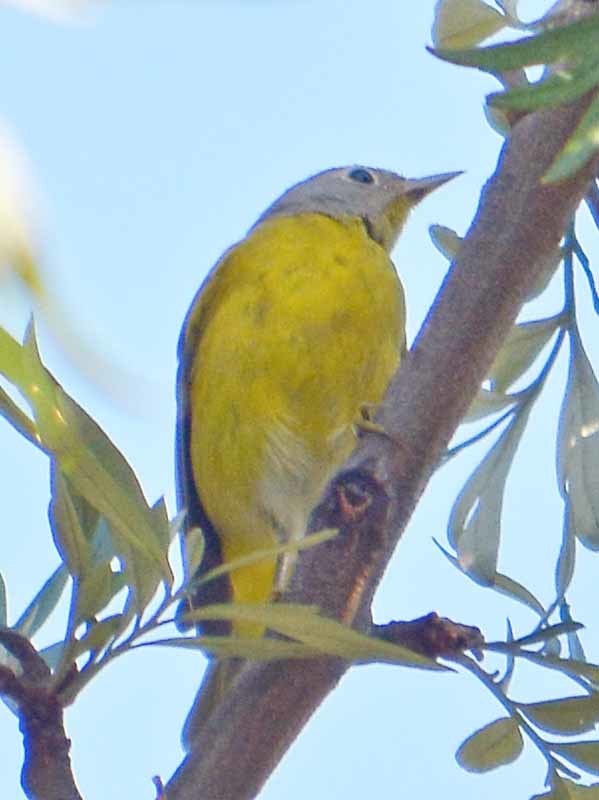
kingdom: Animalia
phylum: Chordata
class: Aves
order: Passeriformes
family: Parulidae
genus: Leiothlypis
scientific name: Leiothlypis ruficapilla
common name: Nashville warbler
